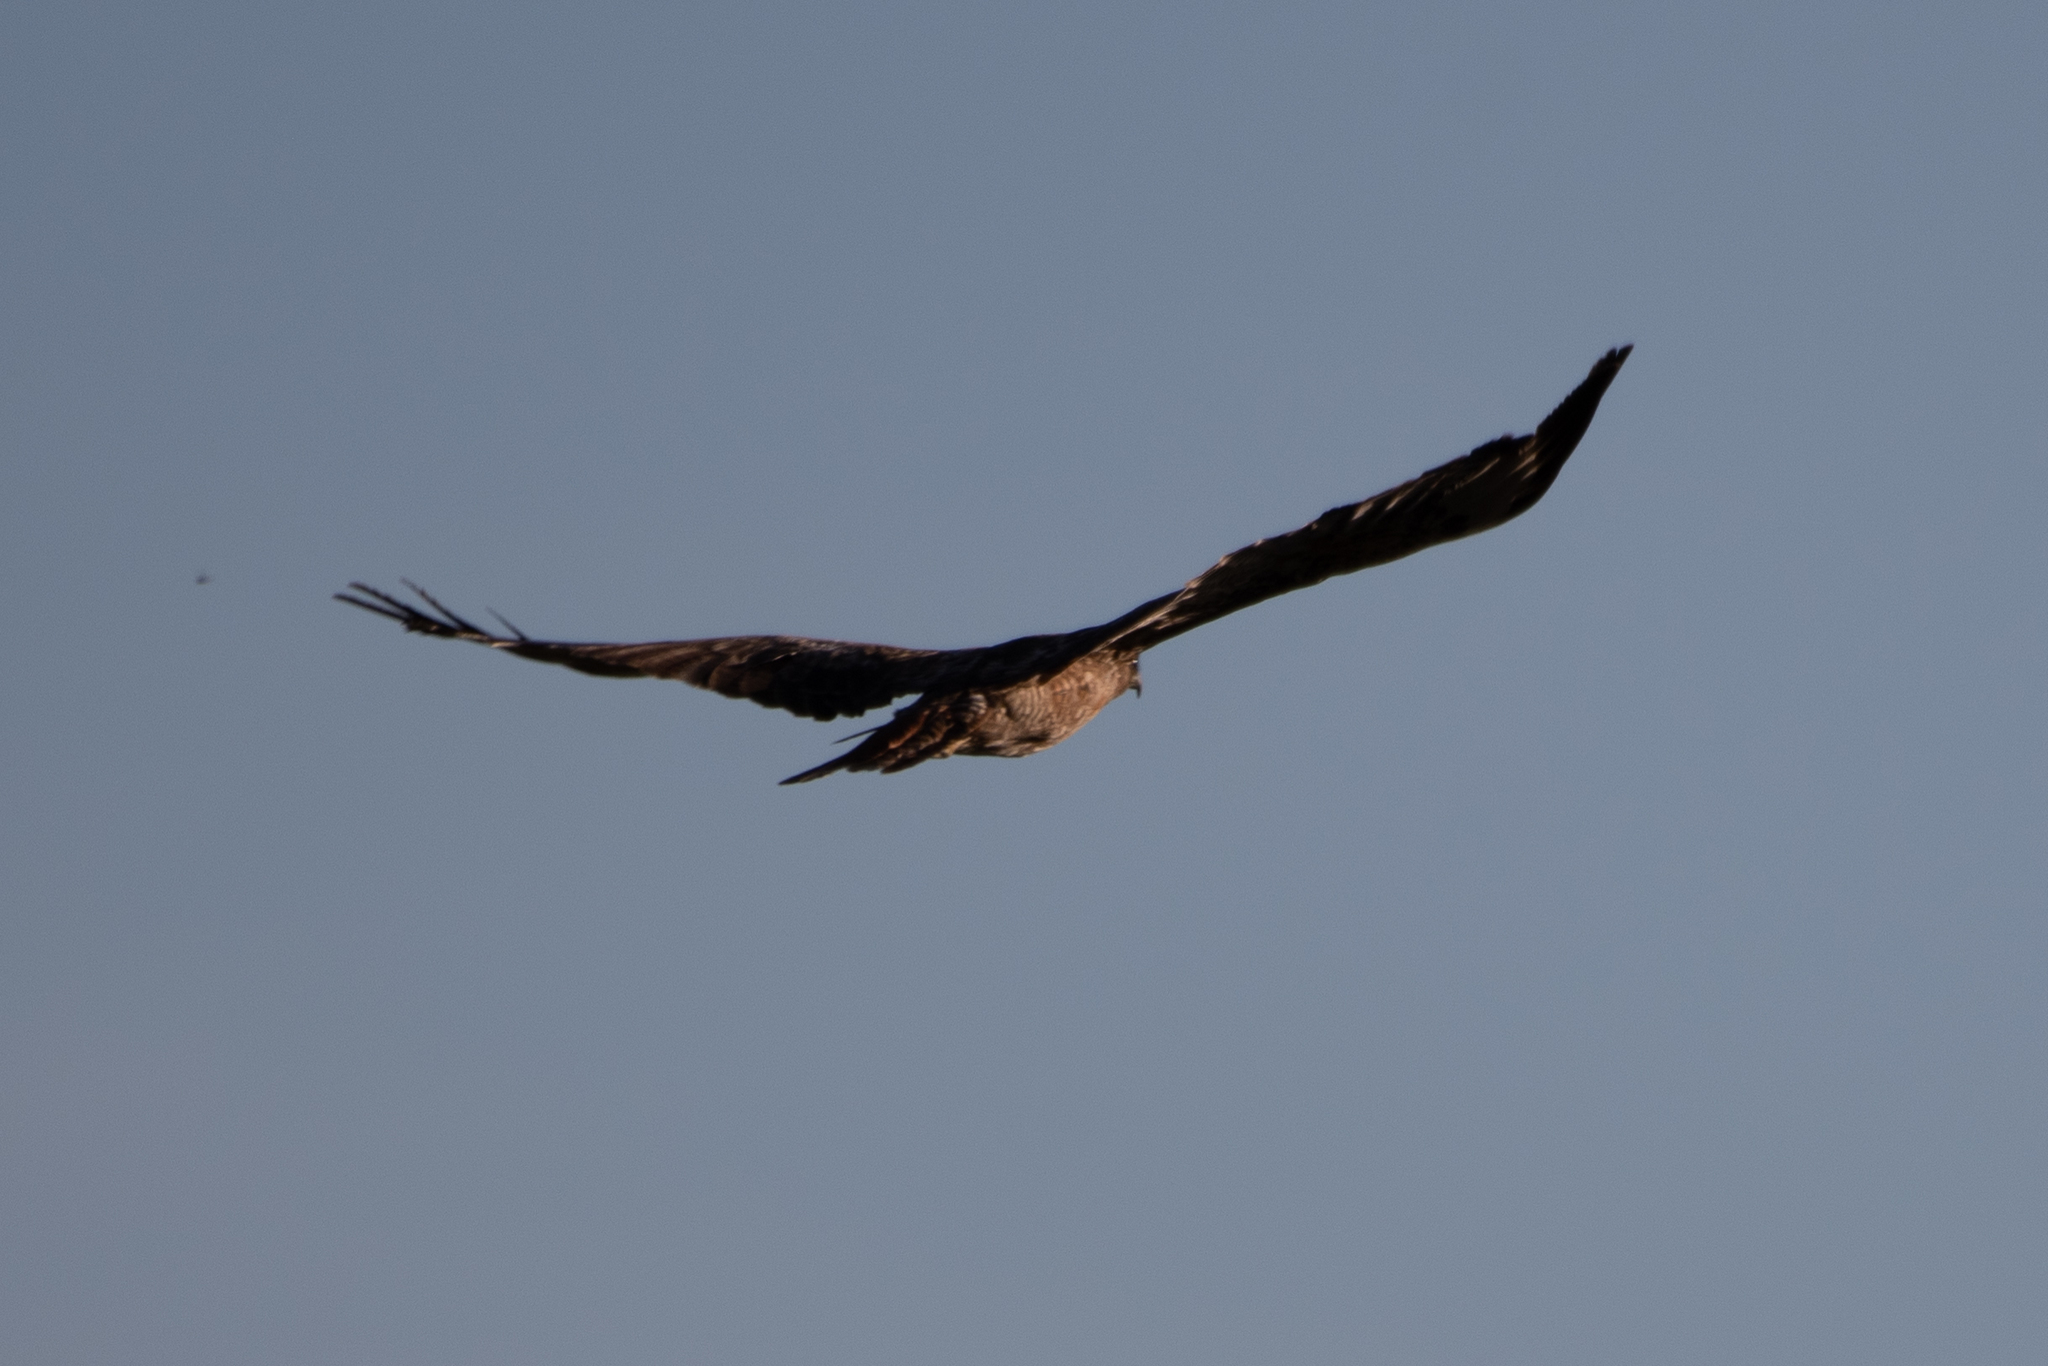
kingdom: Animalia
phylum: Chordata
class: Aves
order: Accipitriformes
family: Accipitridae
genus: Buteo
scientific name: Buteo jamaicensis
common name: Red-tailed hawk
